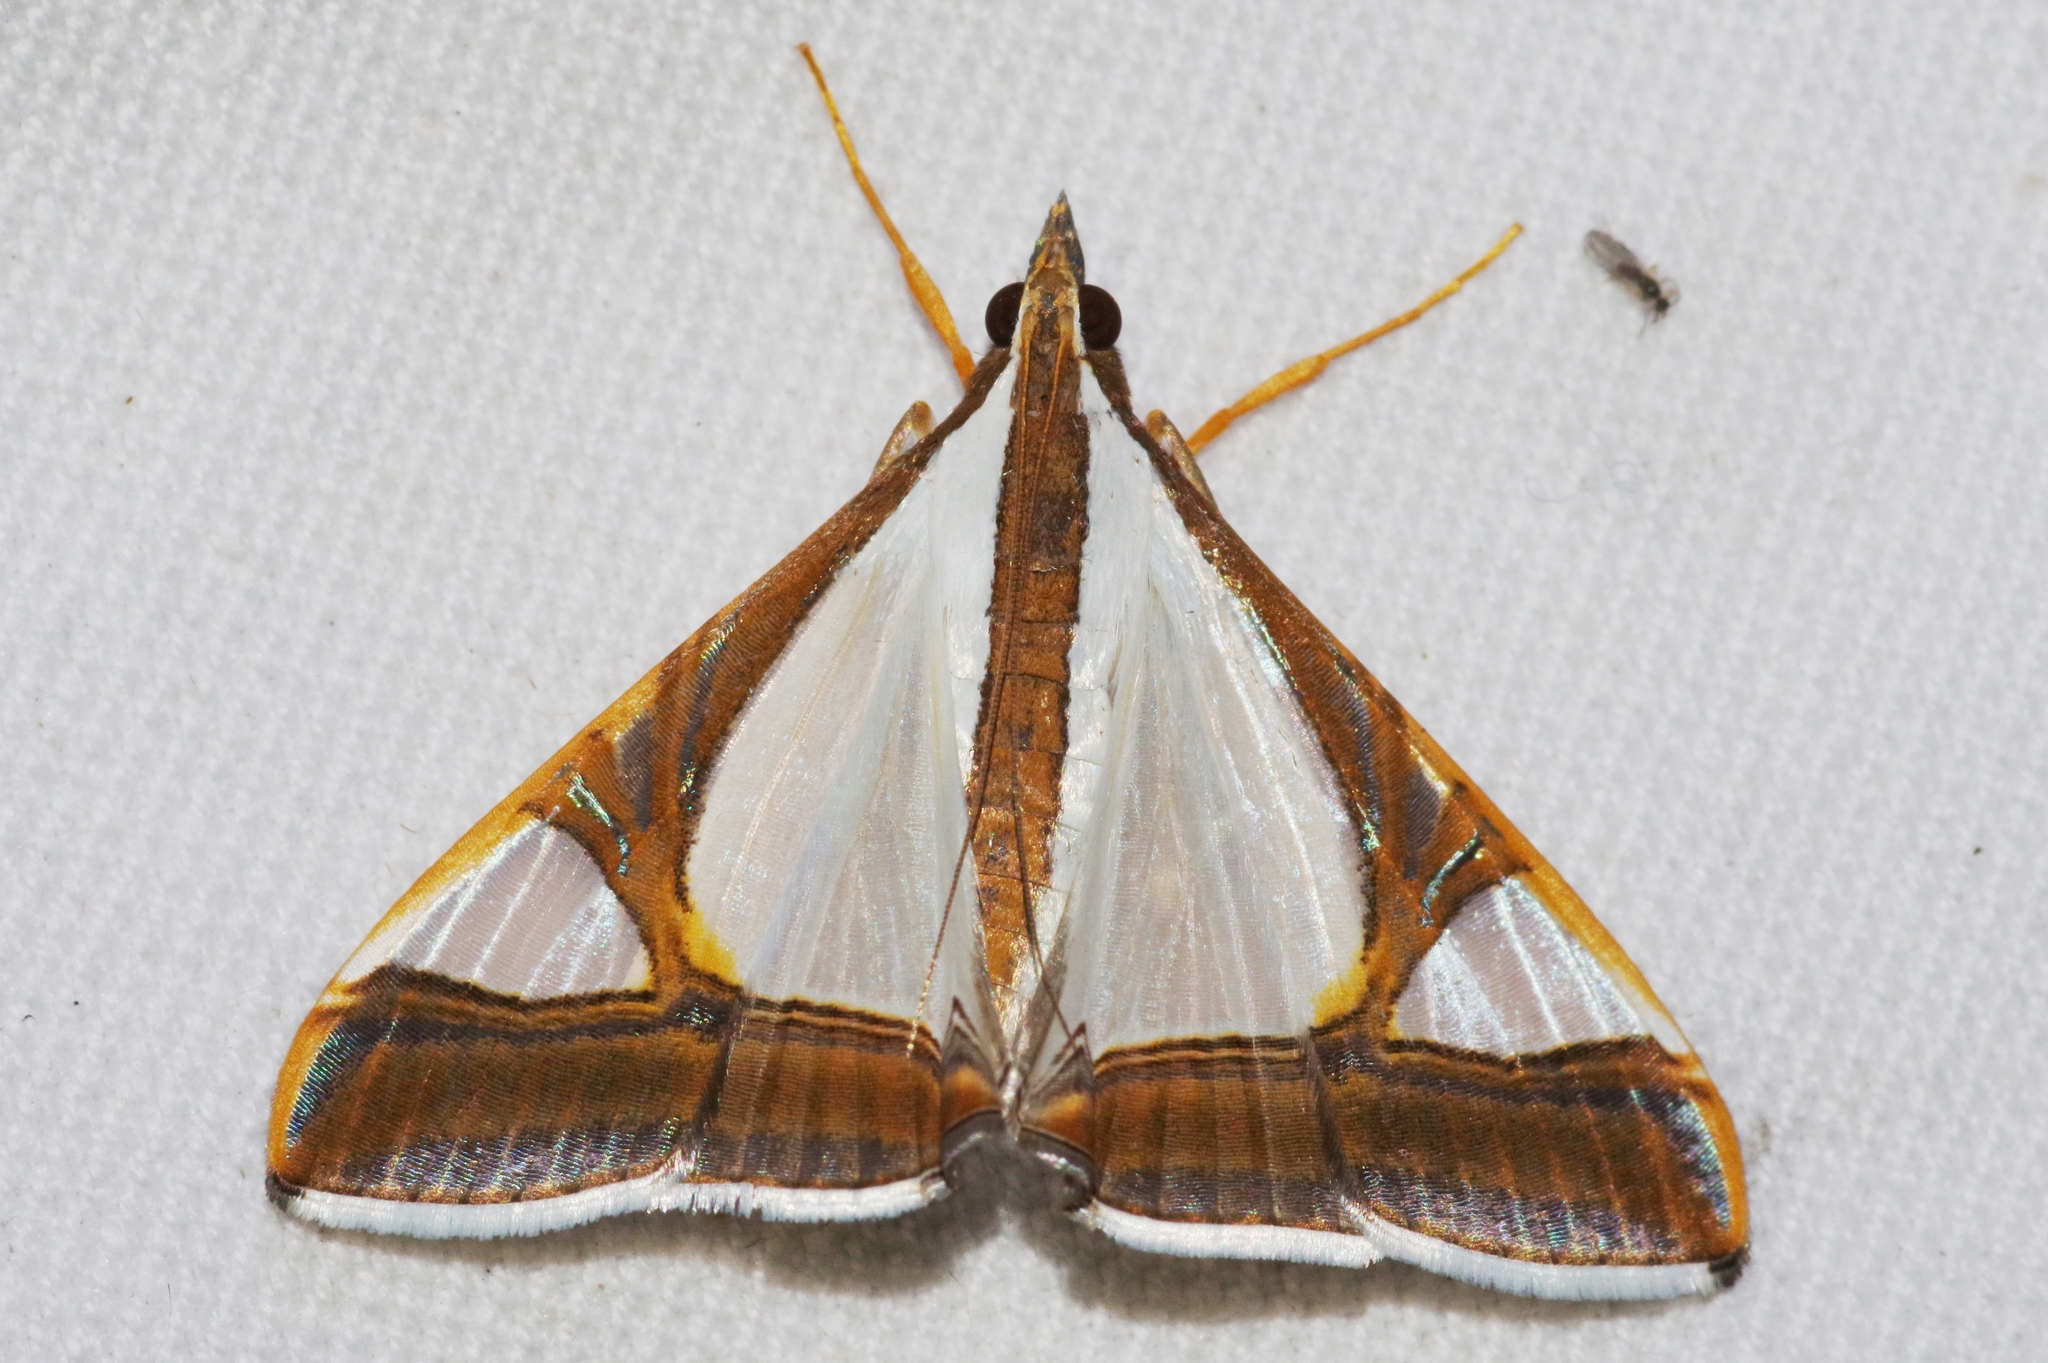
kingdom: Animalia
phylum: Arthropoda
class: Insecta
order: Lepidoptera
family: Crambidae
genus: Agrioglypta
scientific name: Agrioglypta eurytusalis
